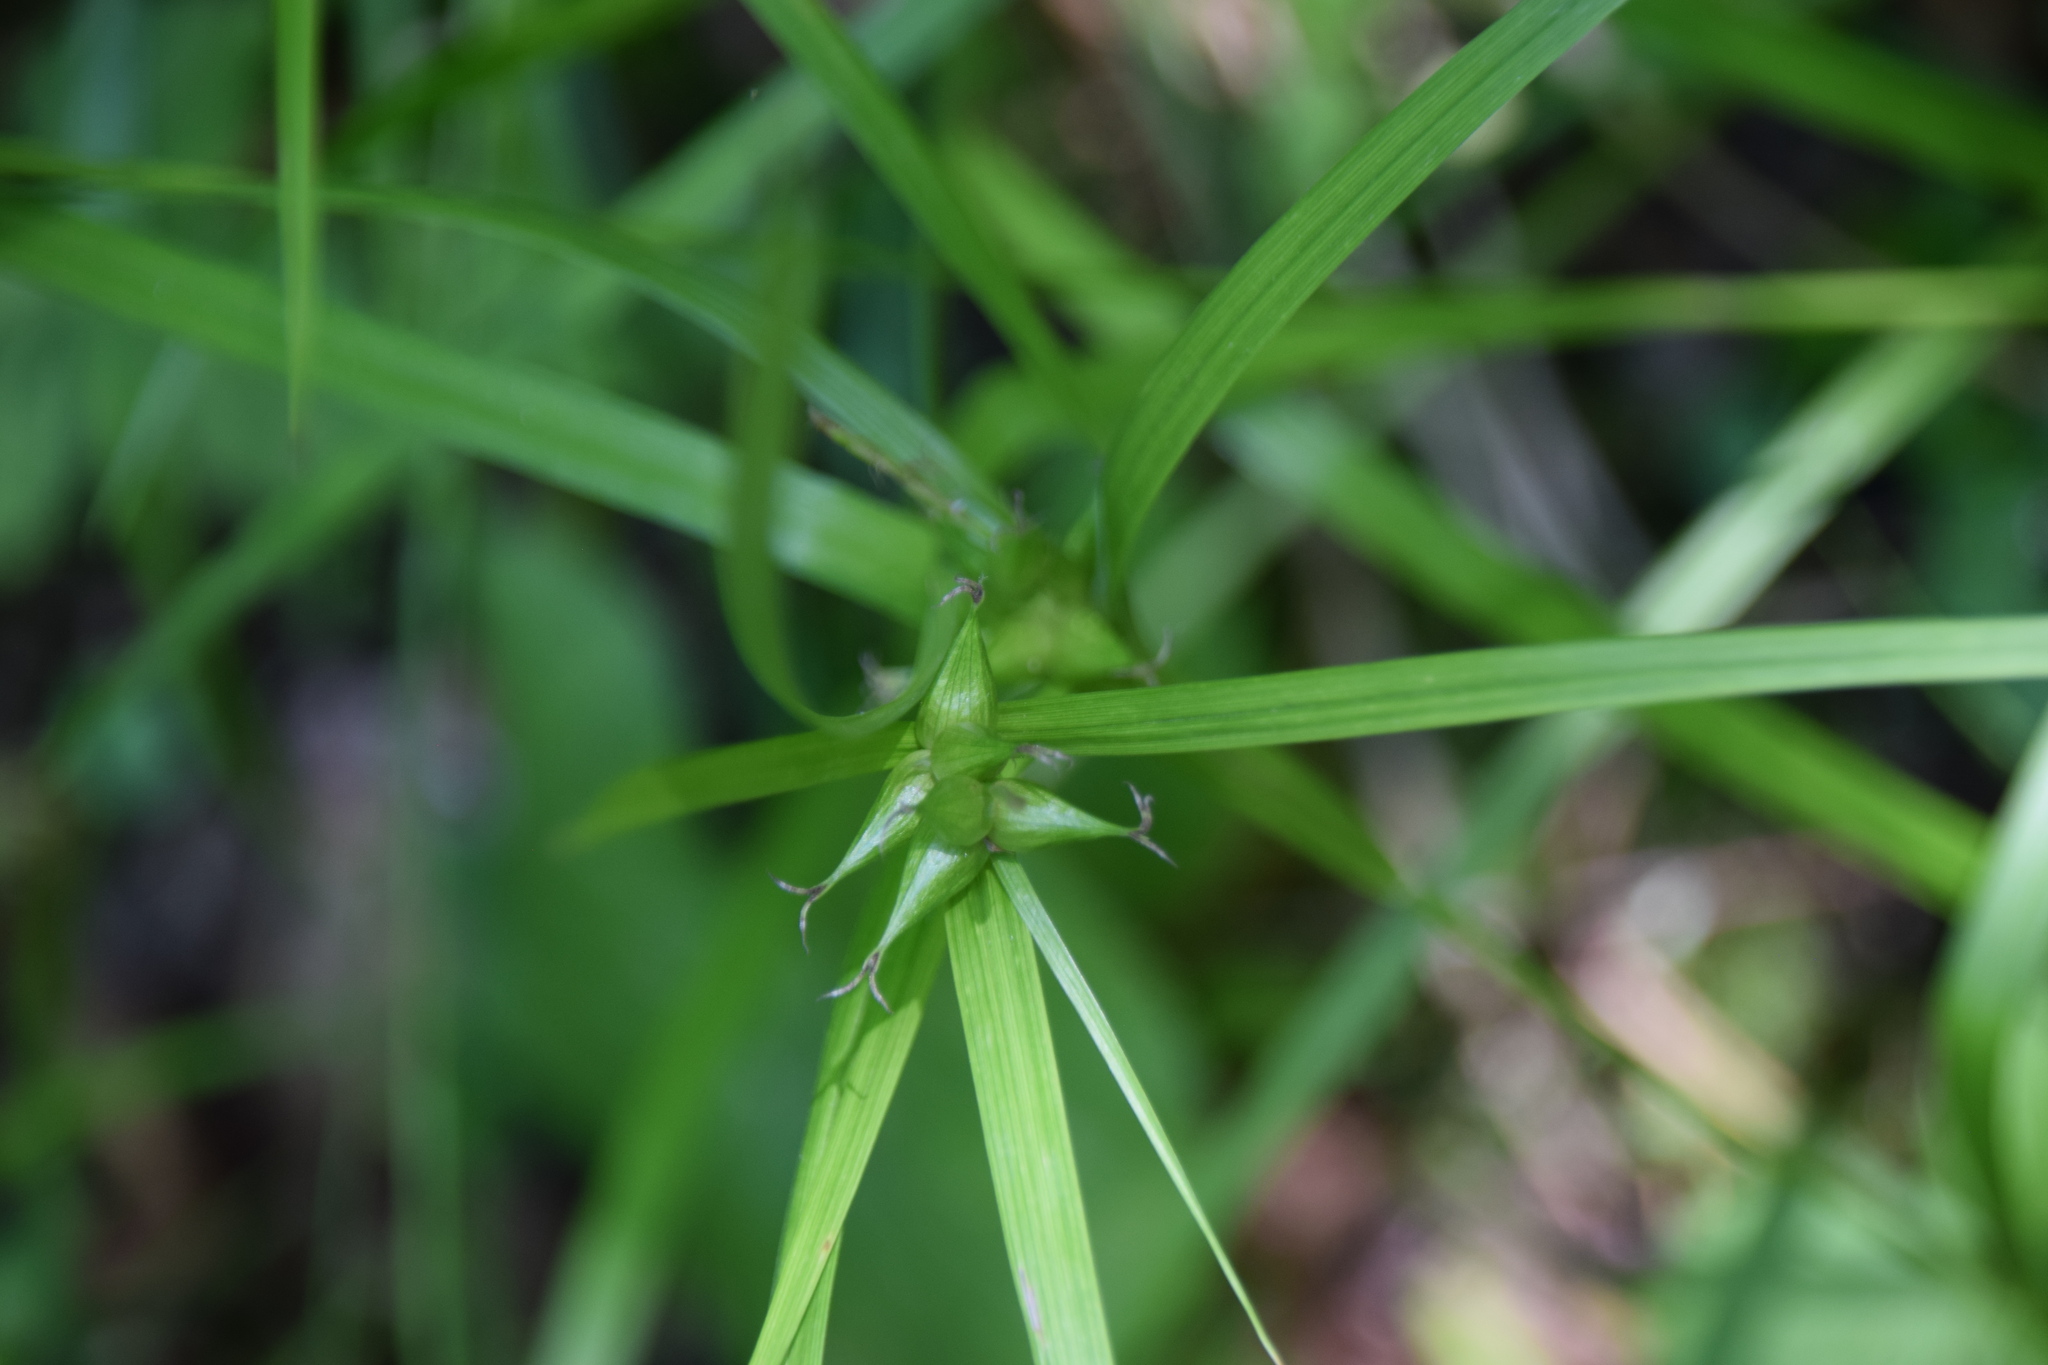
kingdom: Plantae
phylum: Tracheophyta
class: Liliopsida
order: Poales
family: Cyperaceae
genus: Carex
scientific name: Carex intumescens
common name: Greater bladder sedge
